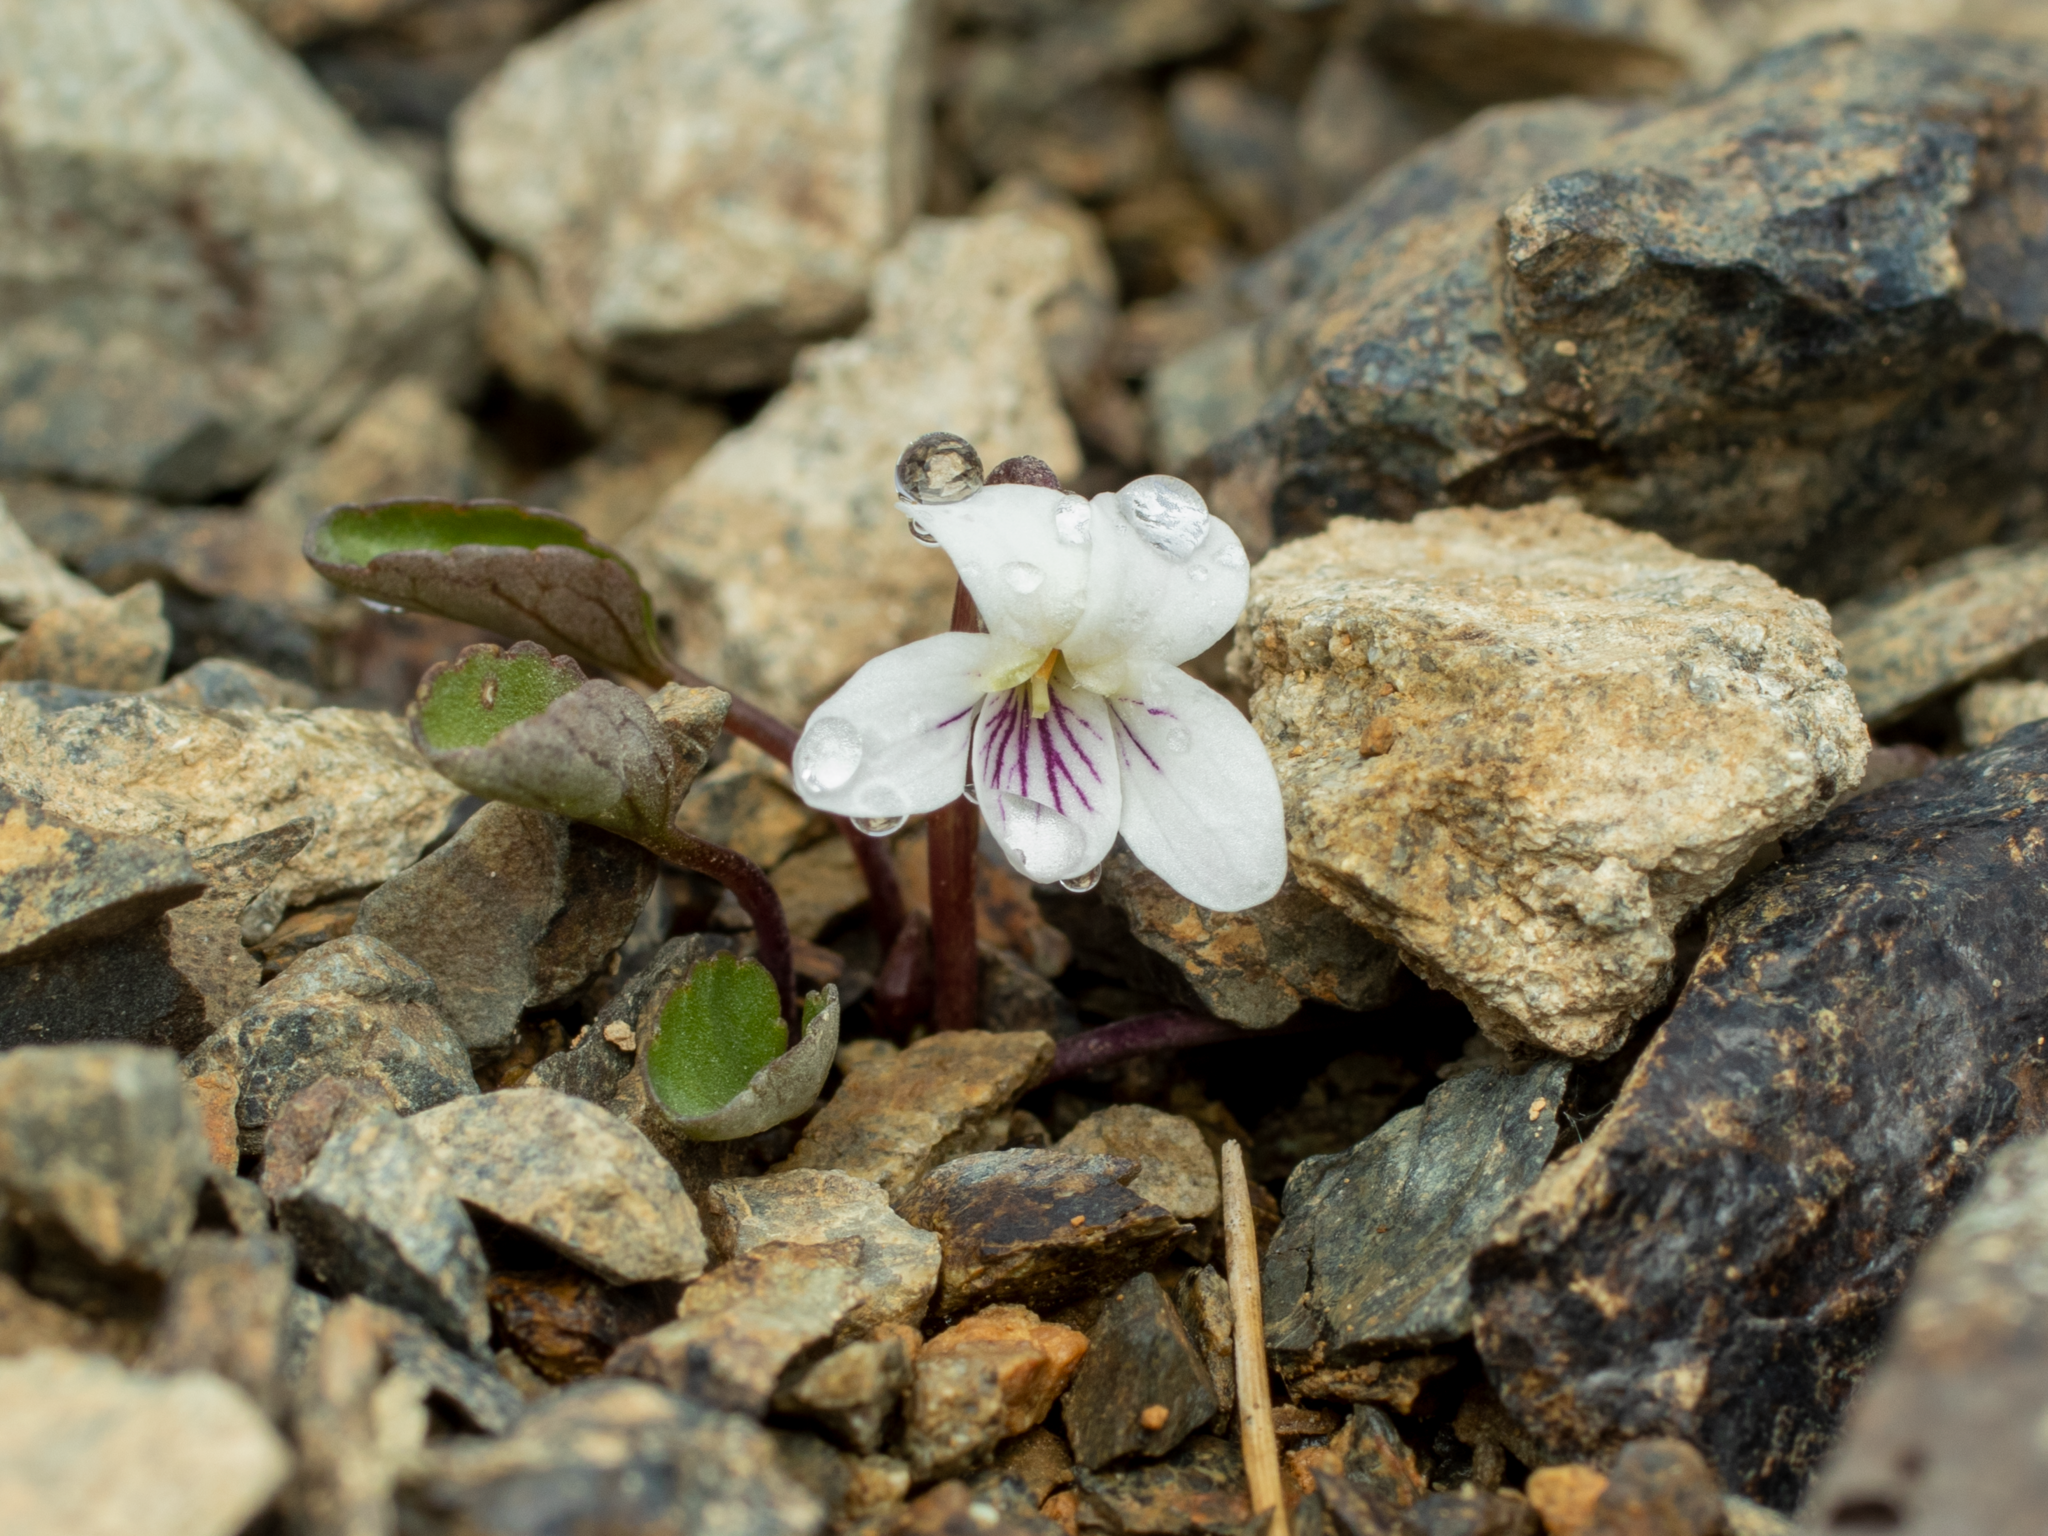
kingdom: Plantae
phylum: Tracheophyta
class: Magnoliopsida
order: Malpighiales
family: Violaceae
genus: Viola
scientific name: Viola cunninghamii
